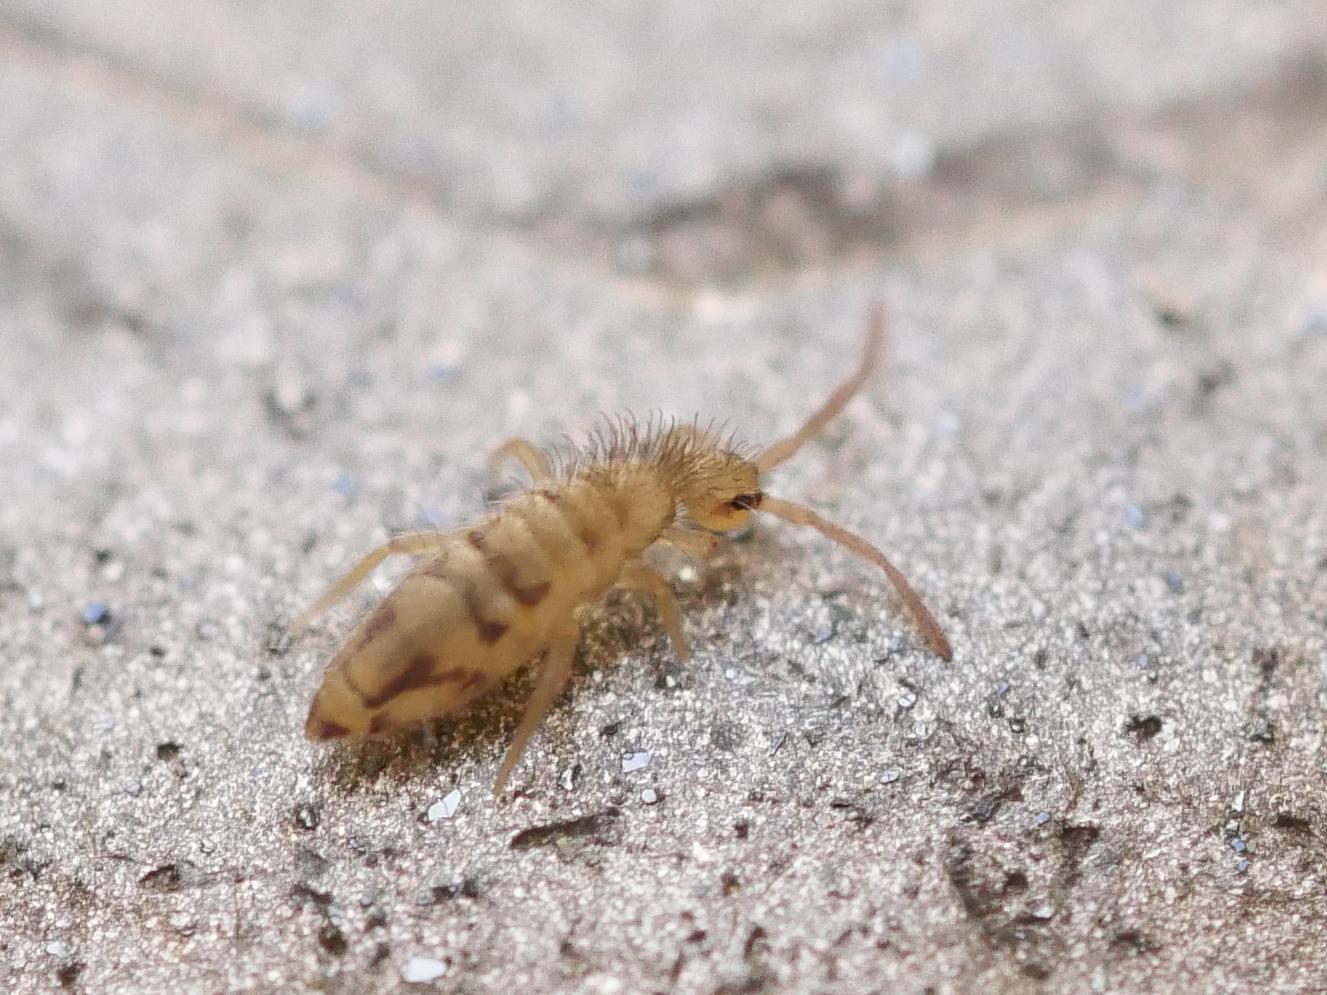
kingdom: Animalia
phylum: Arthropoda
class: Collembola
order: Entomobryomorpha
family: Entomobryidae
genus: Entomobrya
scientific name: Entomobrya nivalis
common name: Cosmopolitan springtail
